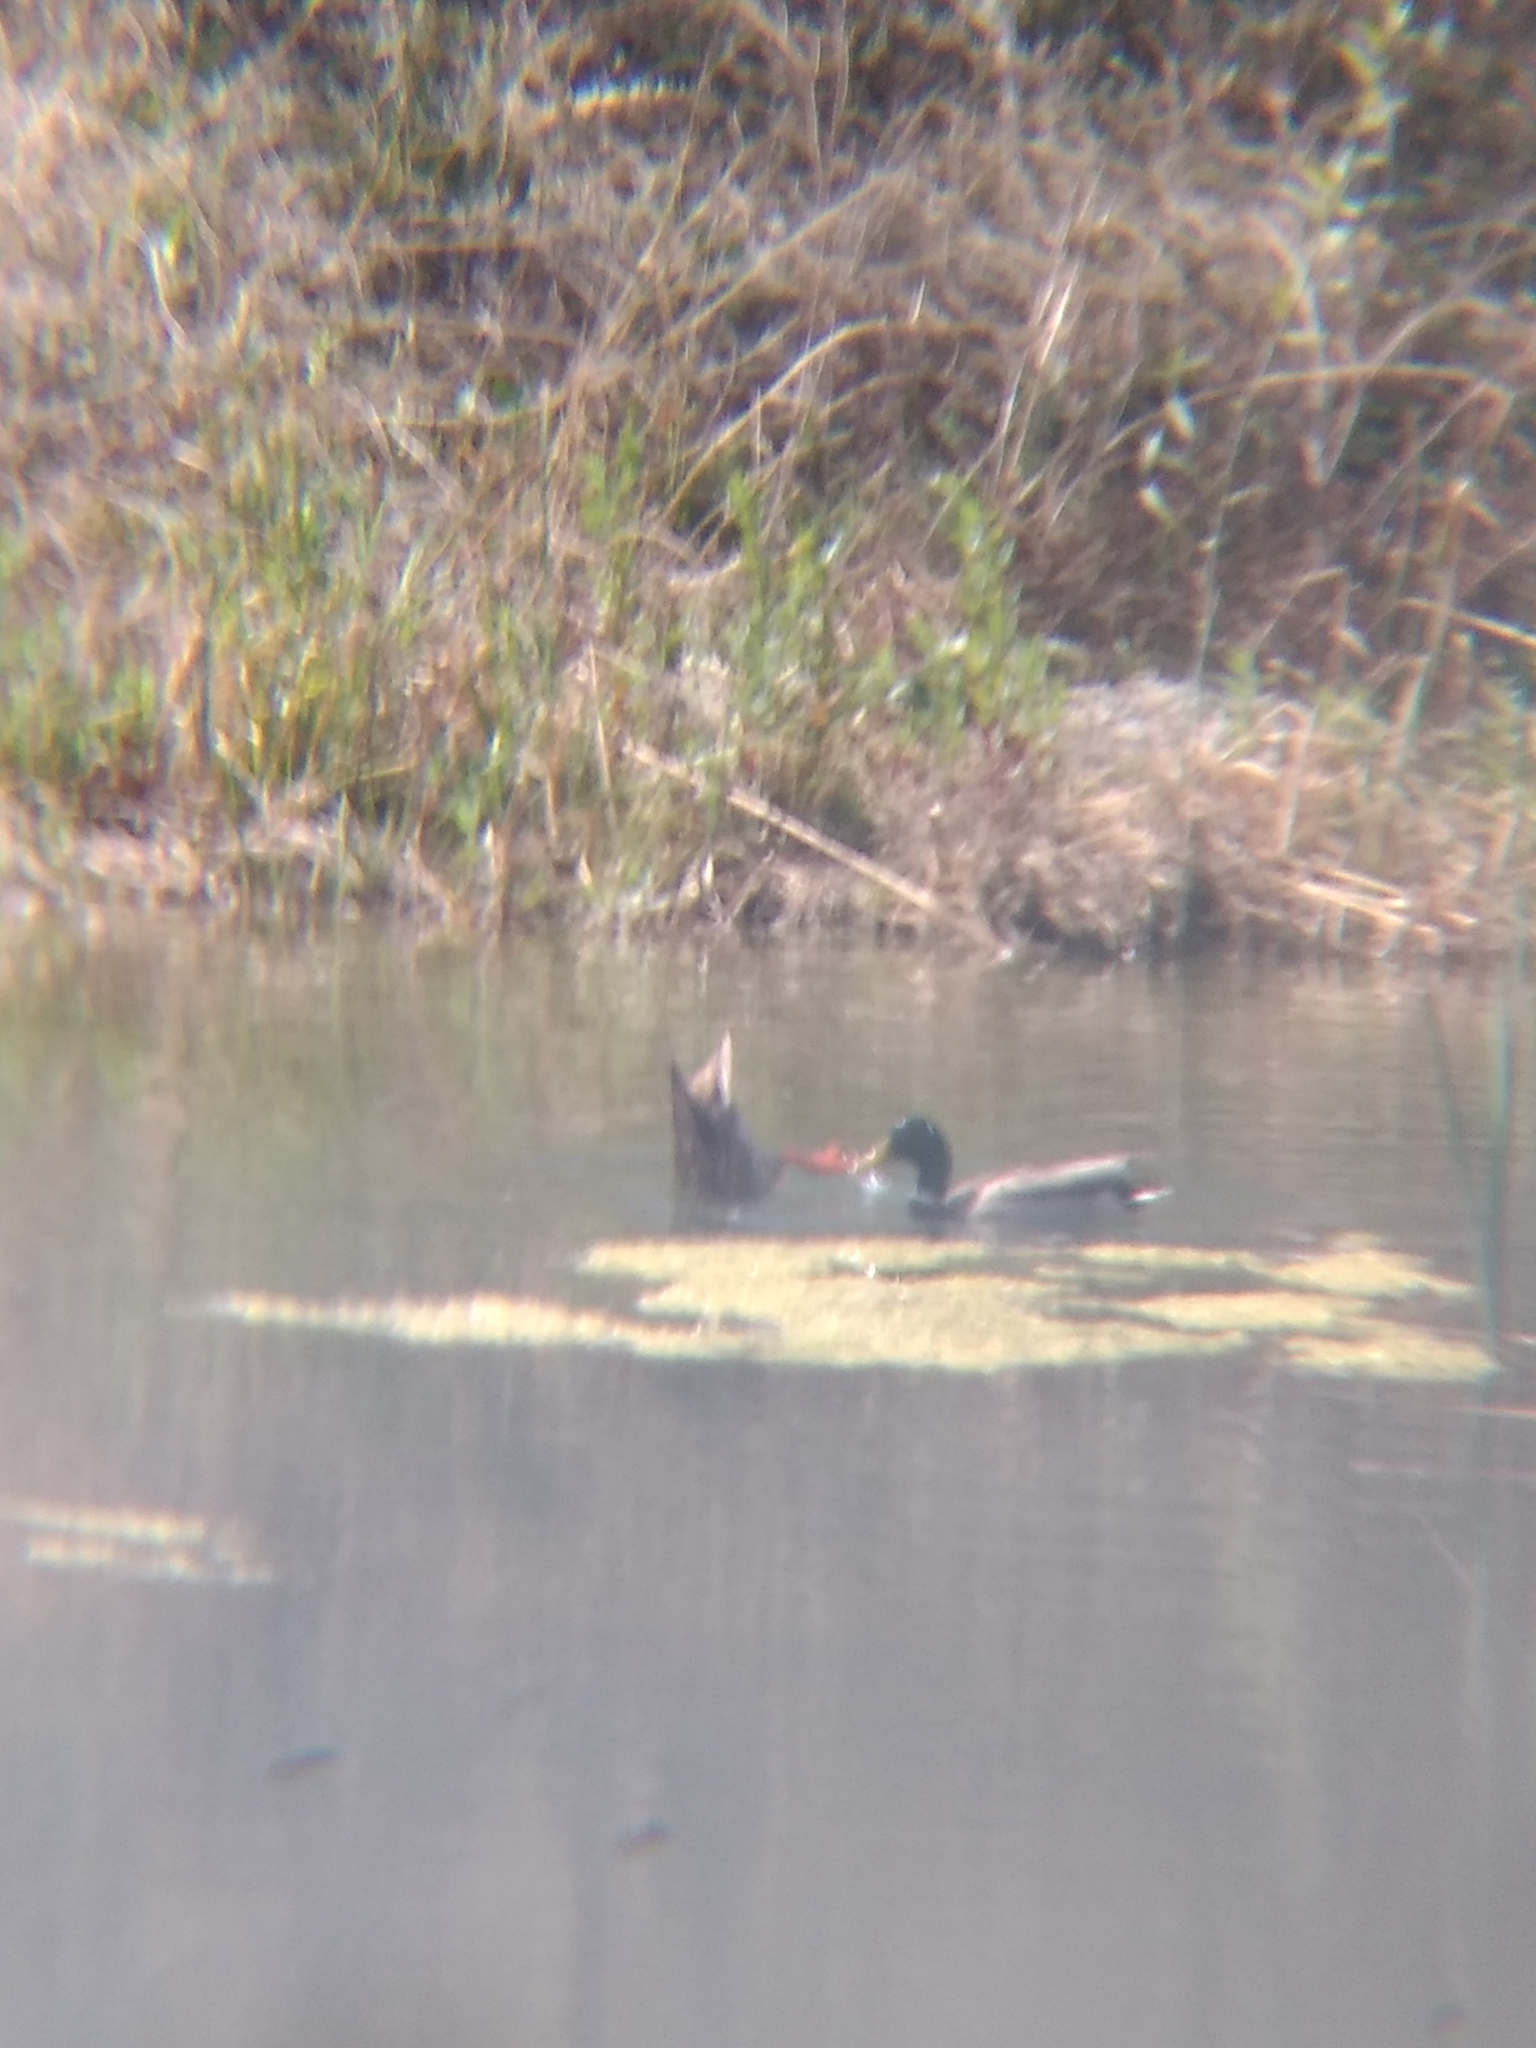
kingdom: Animalia
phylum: Chordata
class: Aves
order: Anseriformes
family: Anatidae
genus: Anas
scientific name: Anas platyrhynchos
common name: Mallard
